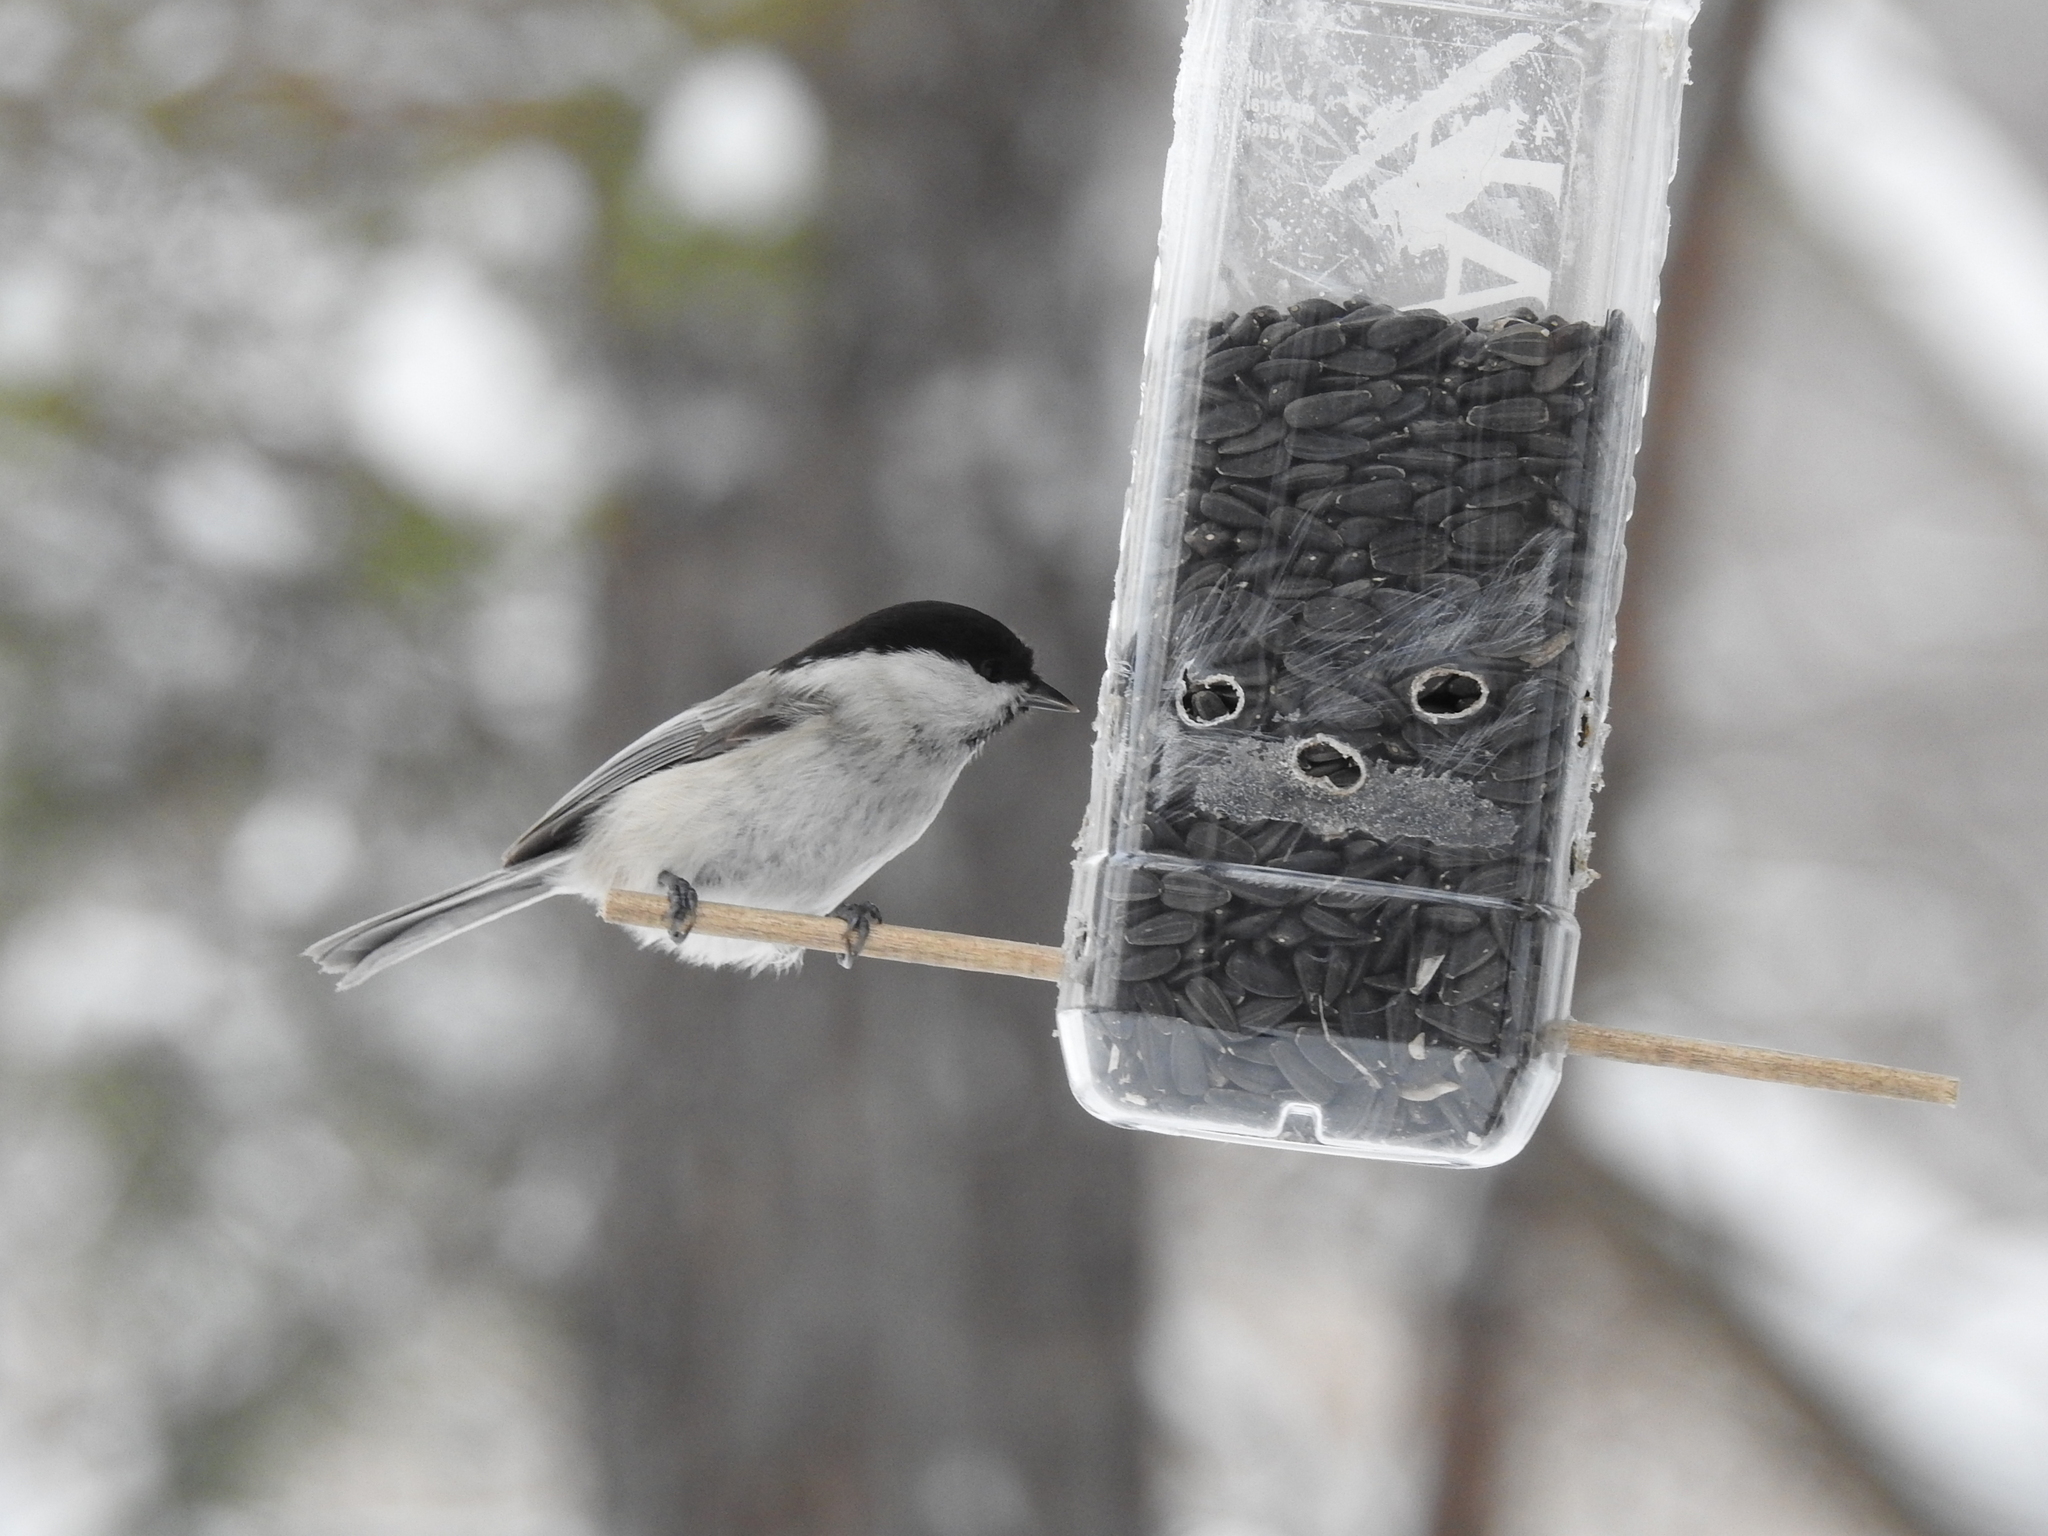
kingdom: Animalia
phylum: Chordata
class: Aves
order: Passeriformes
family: Paridae
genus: Poecile
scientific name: Poecile montanus
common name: Willow tit
